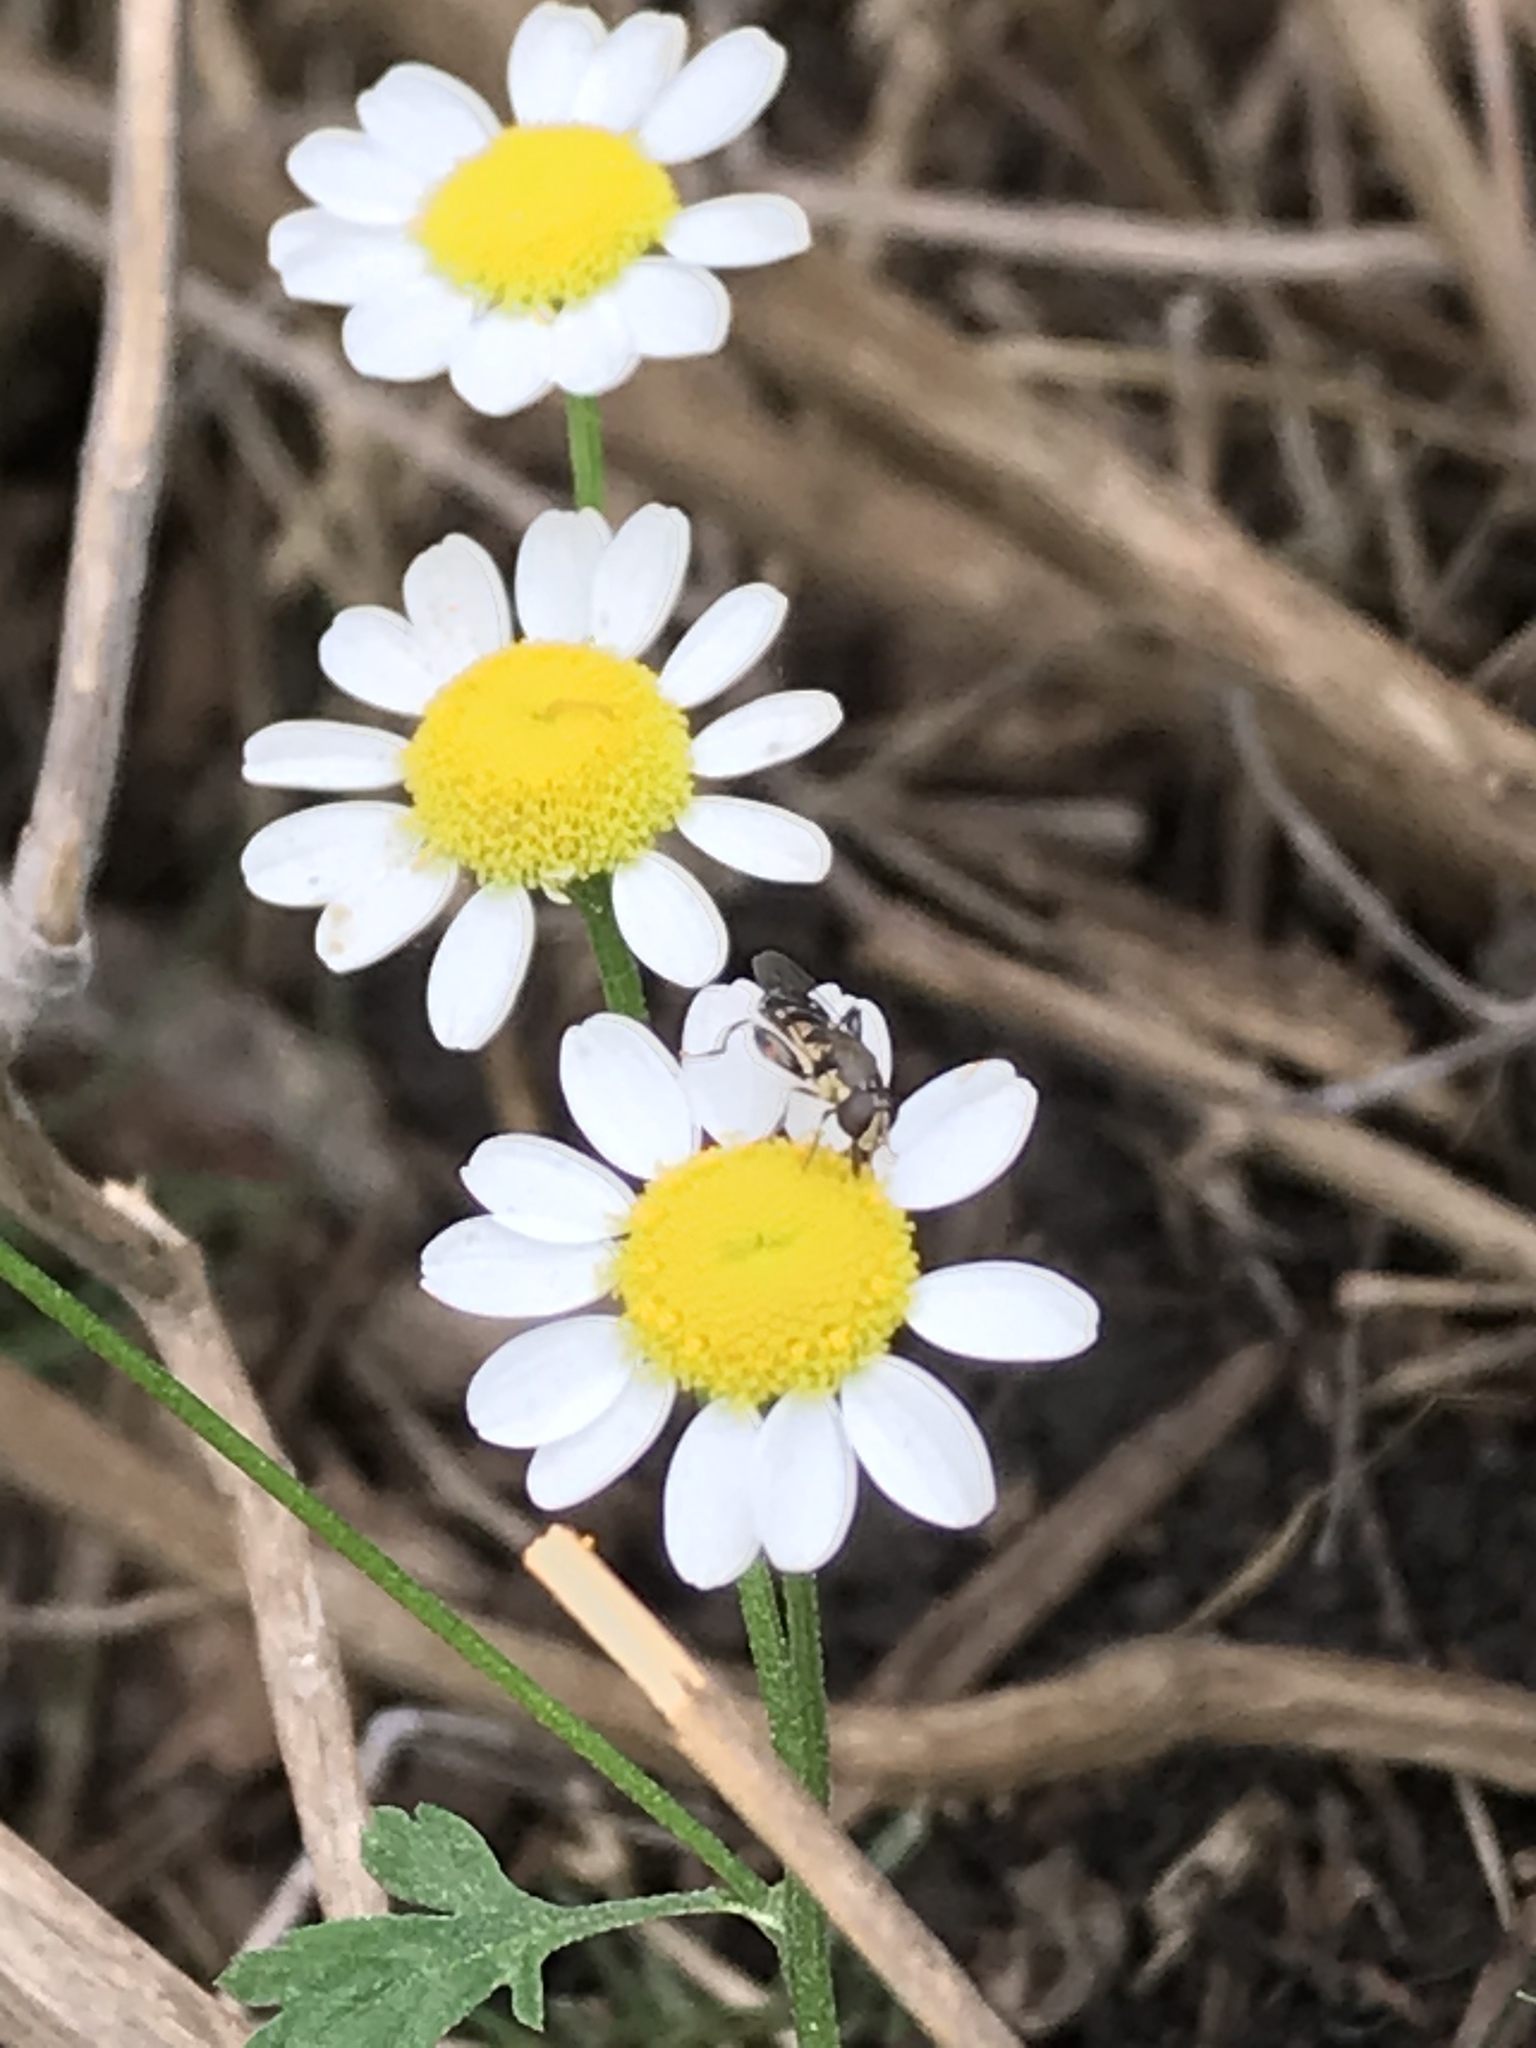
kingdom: Animalia
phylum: Arthropoda
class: Insecta
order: Diptera
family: Syrphidae
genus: Syritta
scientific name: Syritta pipiens
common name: Hover fly
